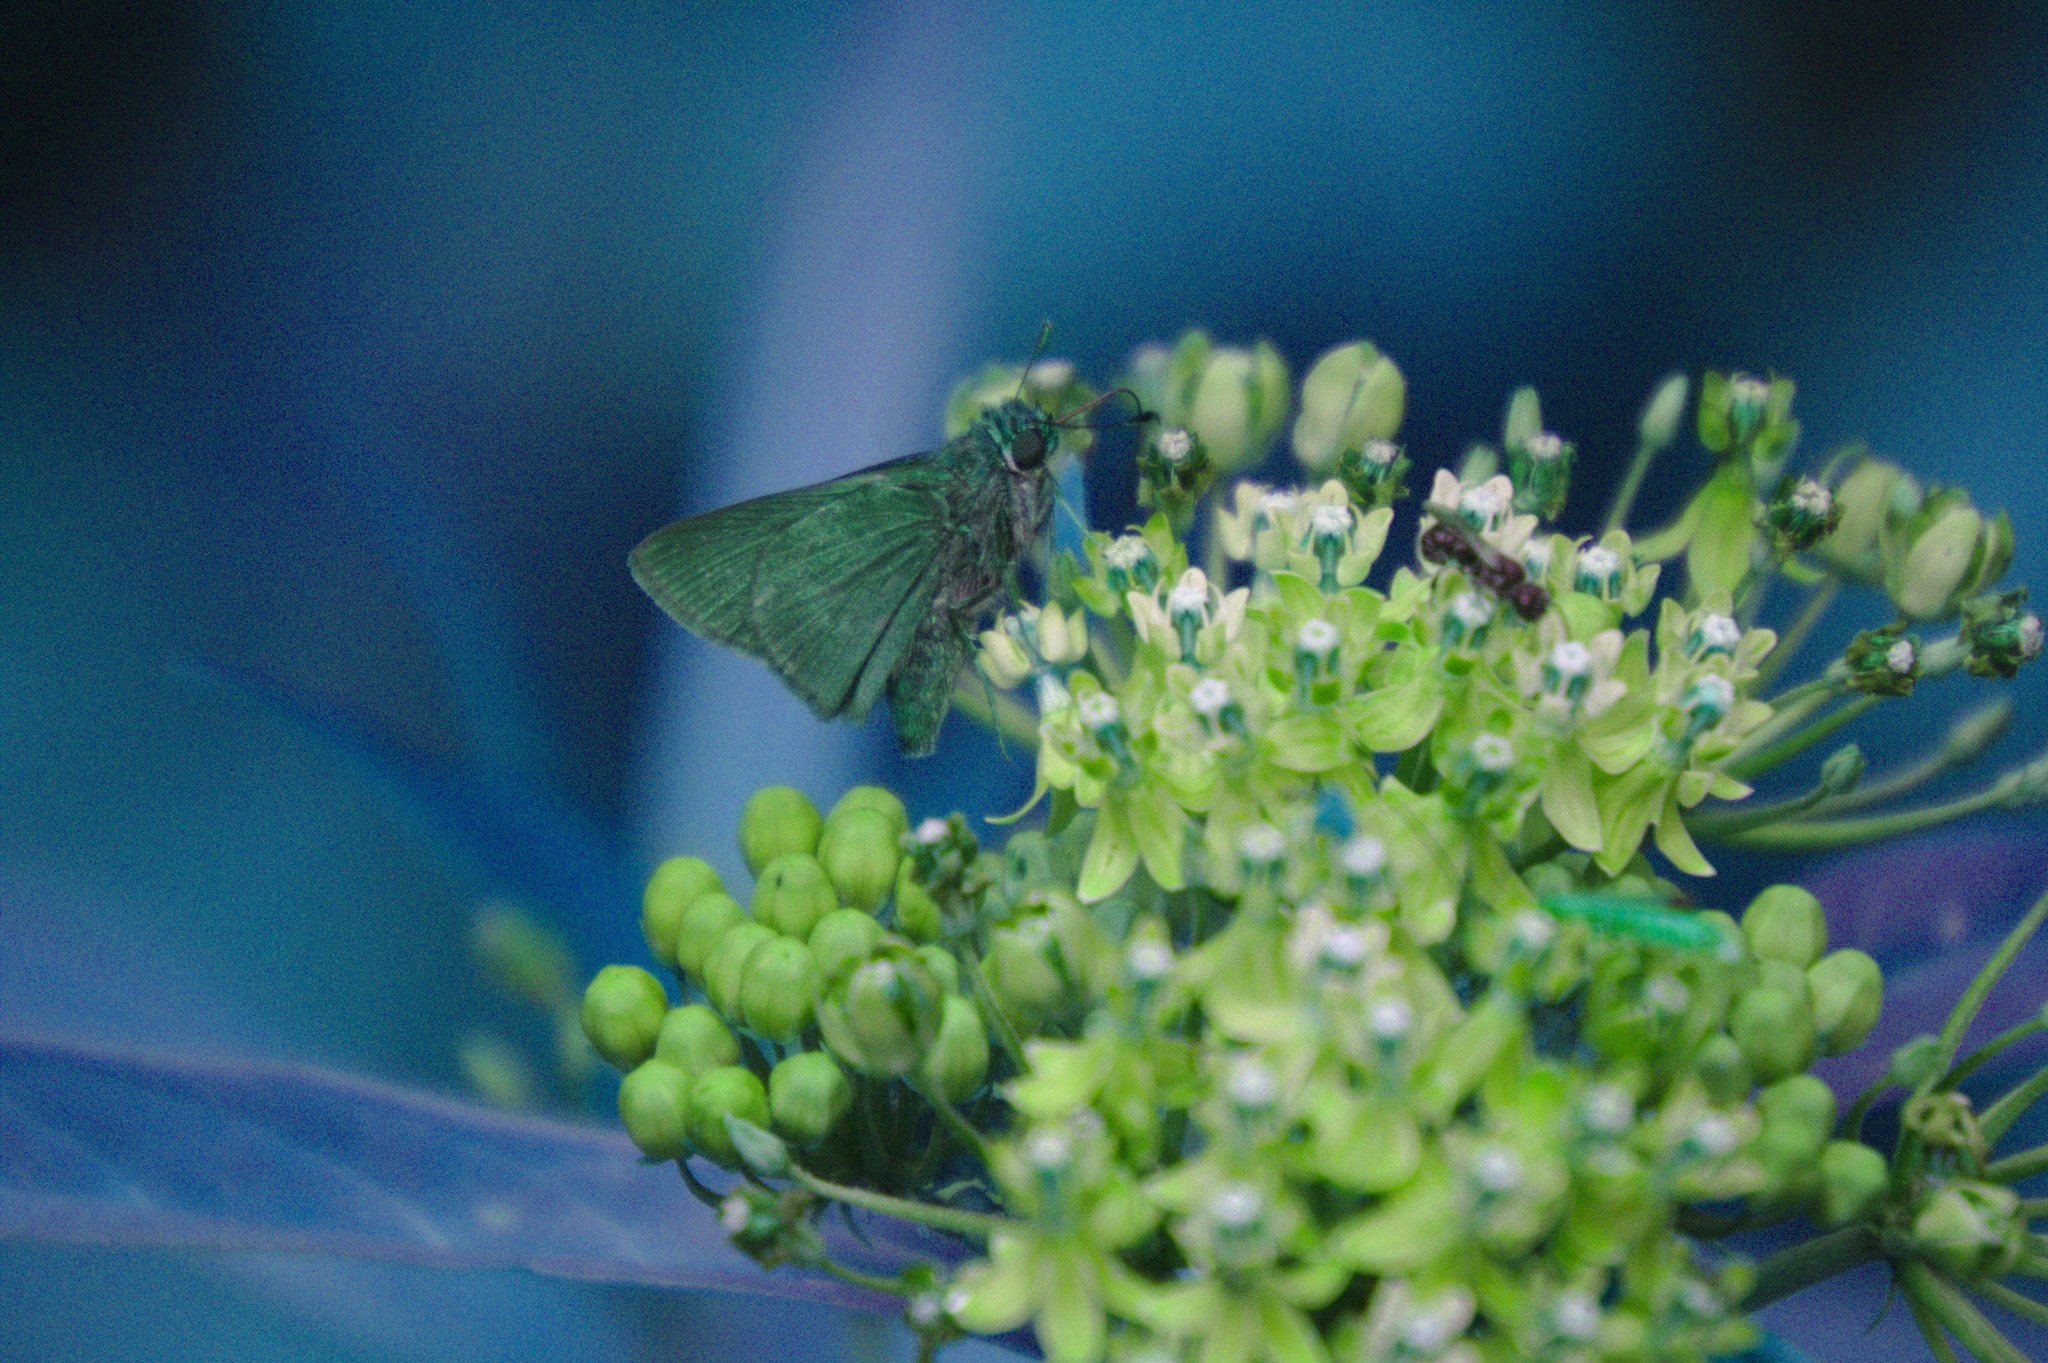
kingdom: Animalia
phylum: Arthropoda
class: Insecta
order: Lepidoptera
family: Hesperiidae
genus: Euphyes
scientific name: Euphyes vestris
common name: Dun skipper
